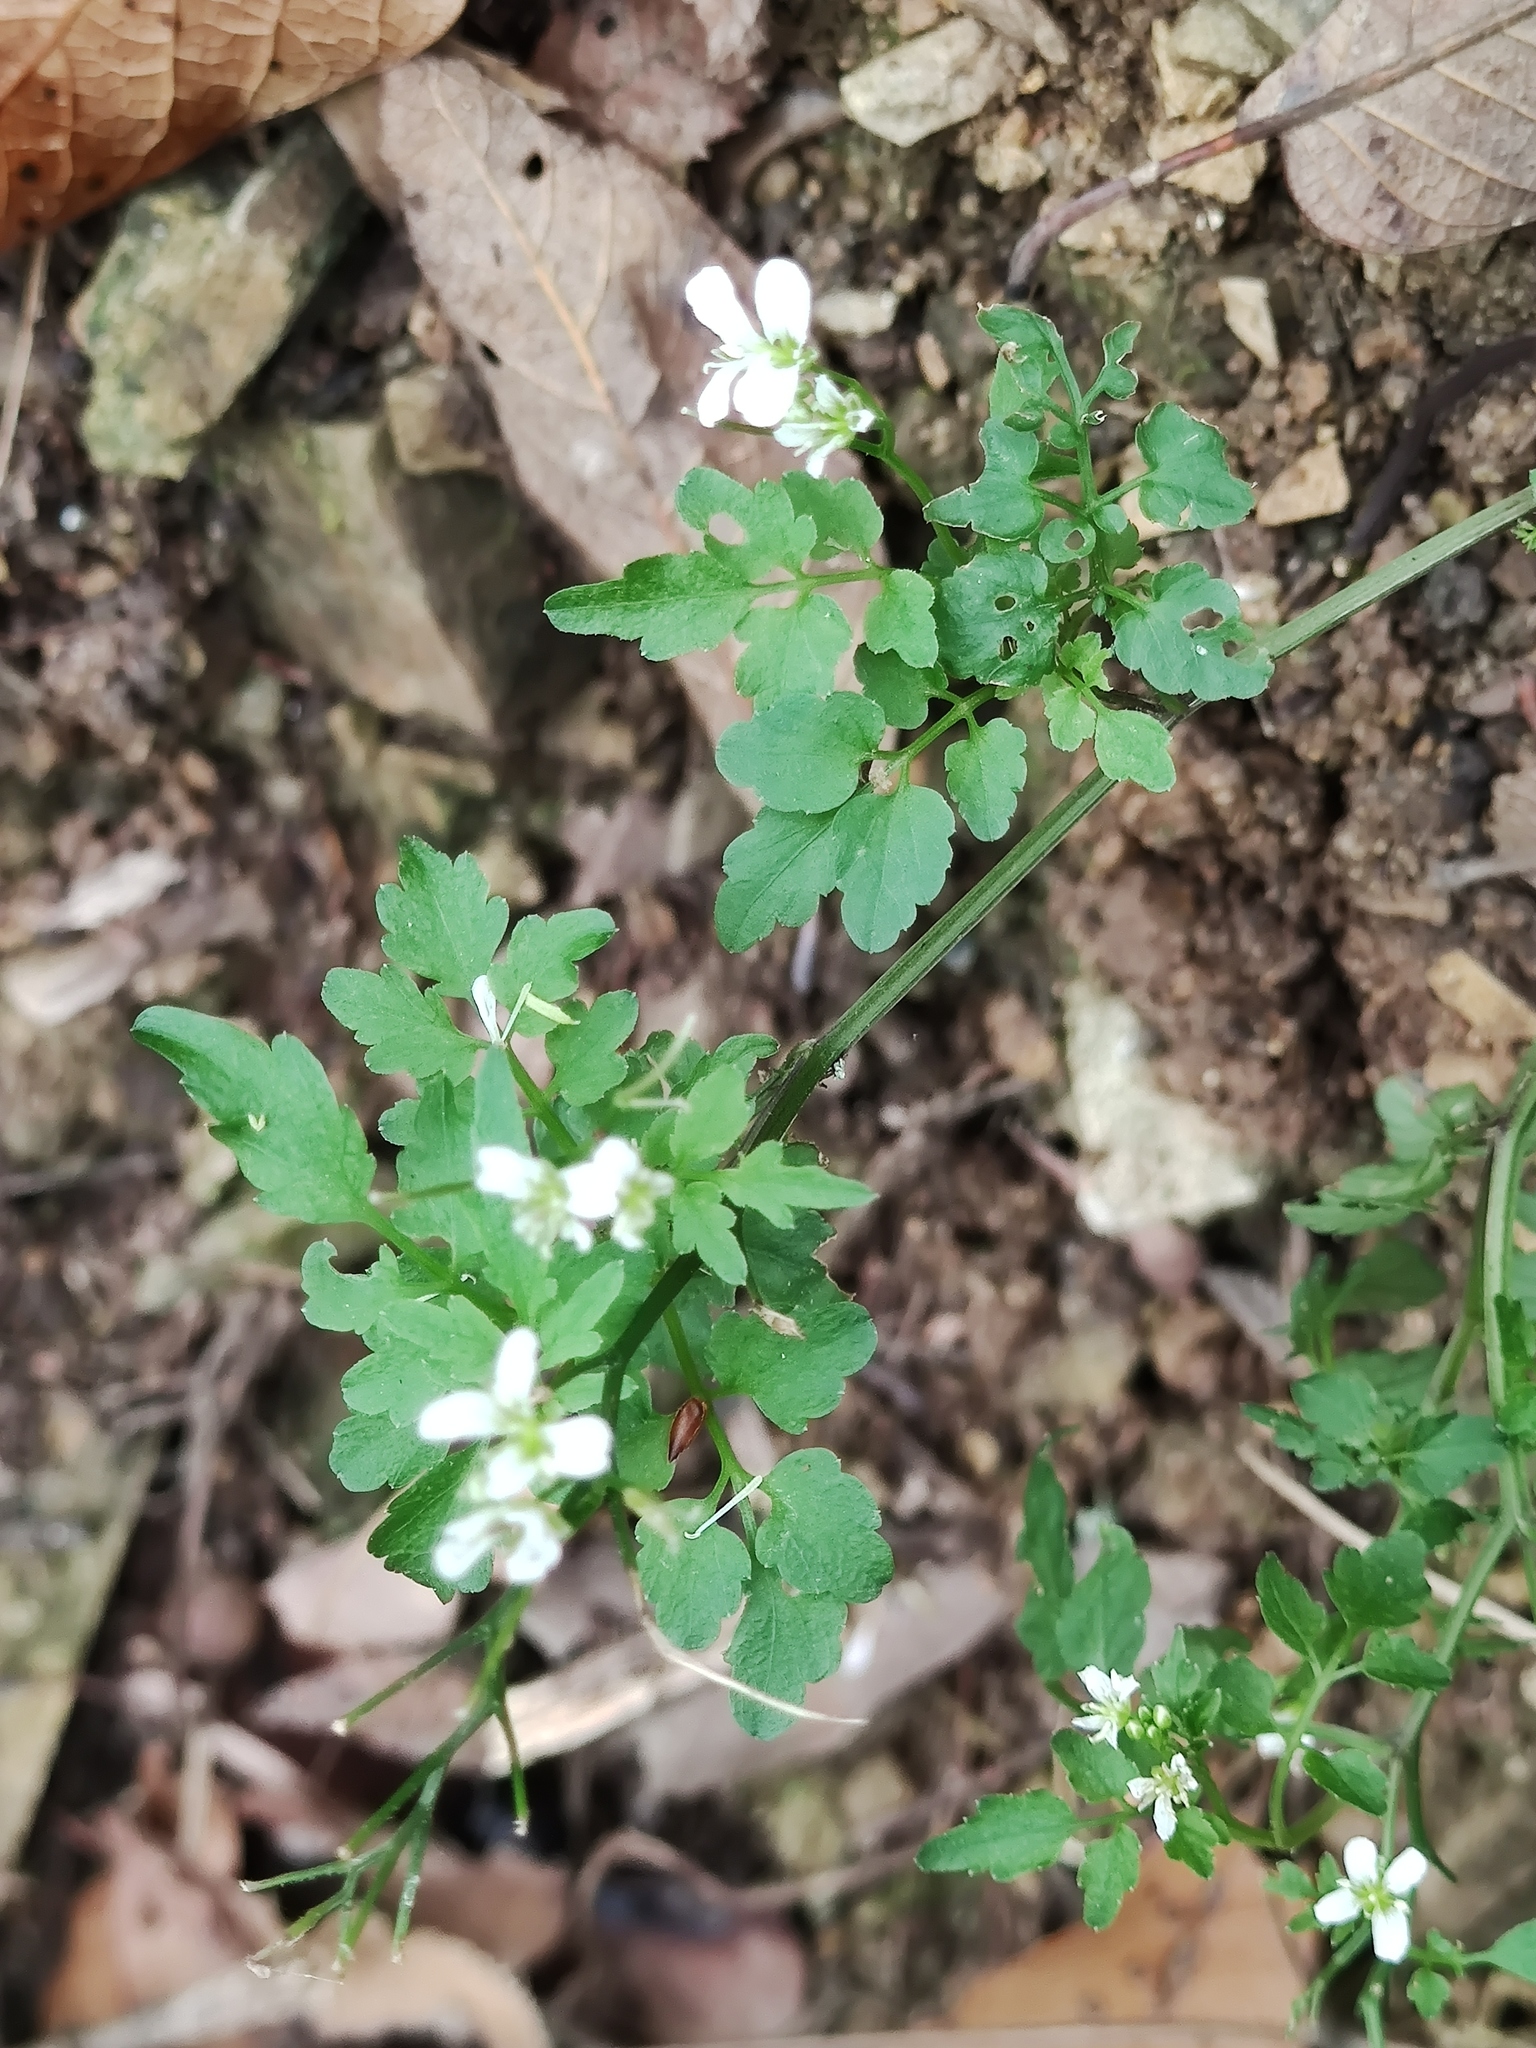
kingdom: Plantae
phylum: Tracheophyta
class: Magnoliopsida
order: Brassicales
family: Brassicaceae
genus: Cardamine
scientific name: Cardamine komarovii
